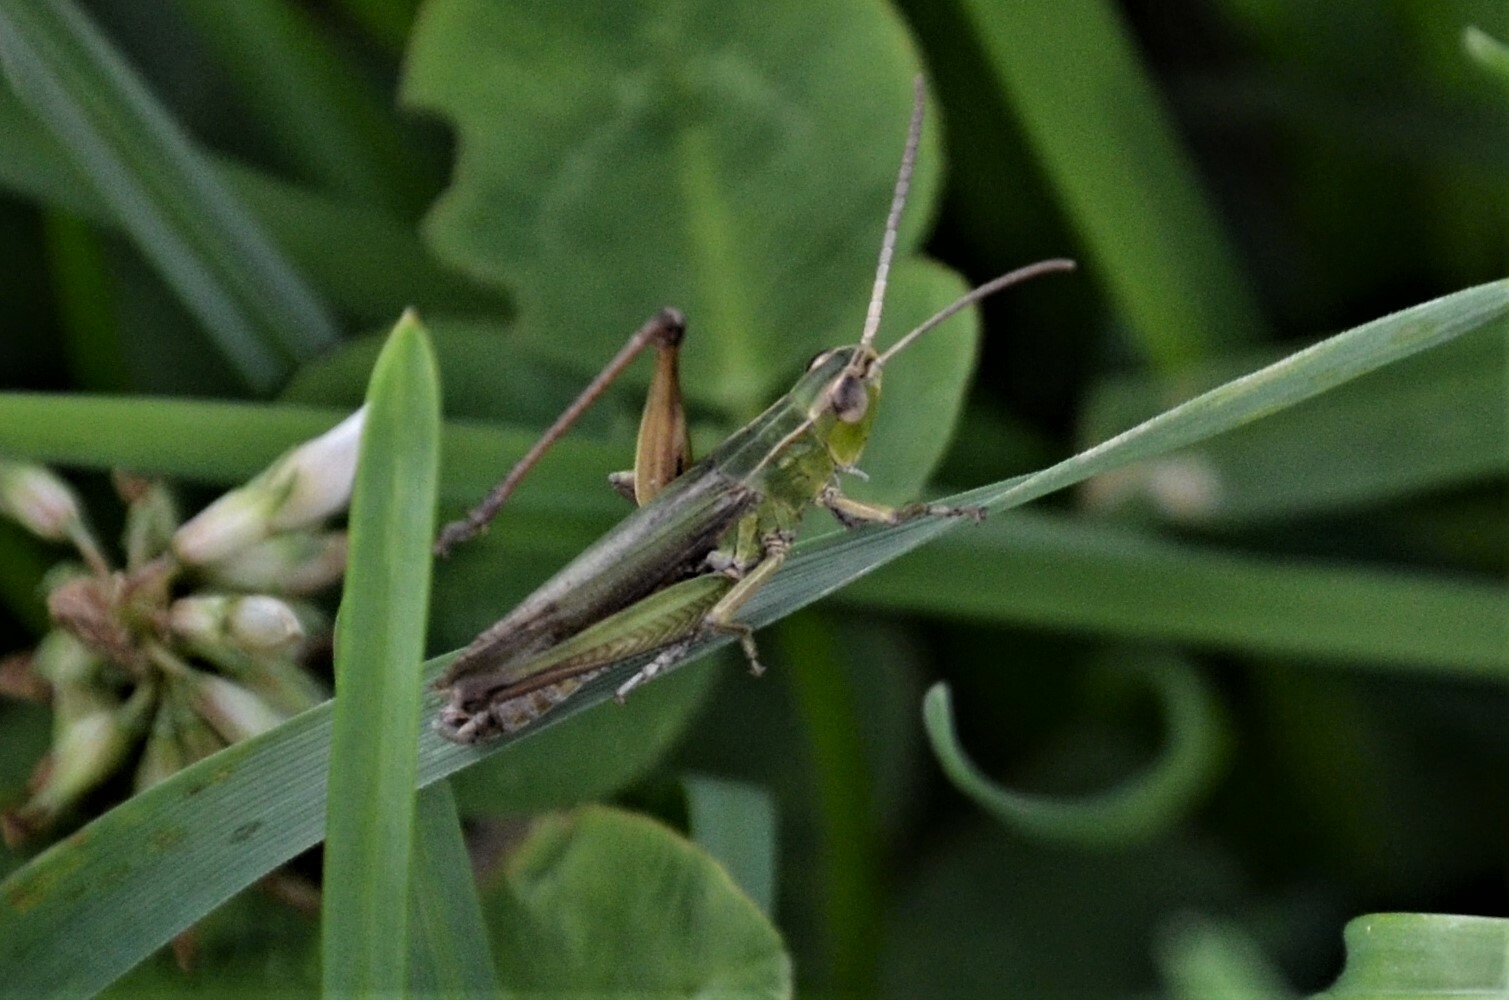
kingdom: Animalia
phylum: Arthropoda
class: Insecta
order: Orthoptera
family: Acrididae
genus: Chorthippus
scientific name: Chorthippus oschei
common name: Carpathian dancing grasshopper
